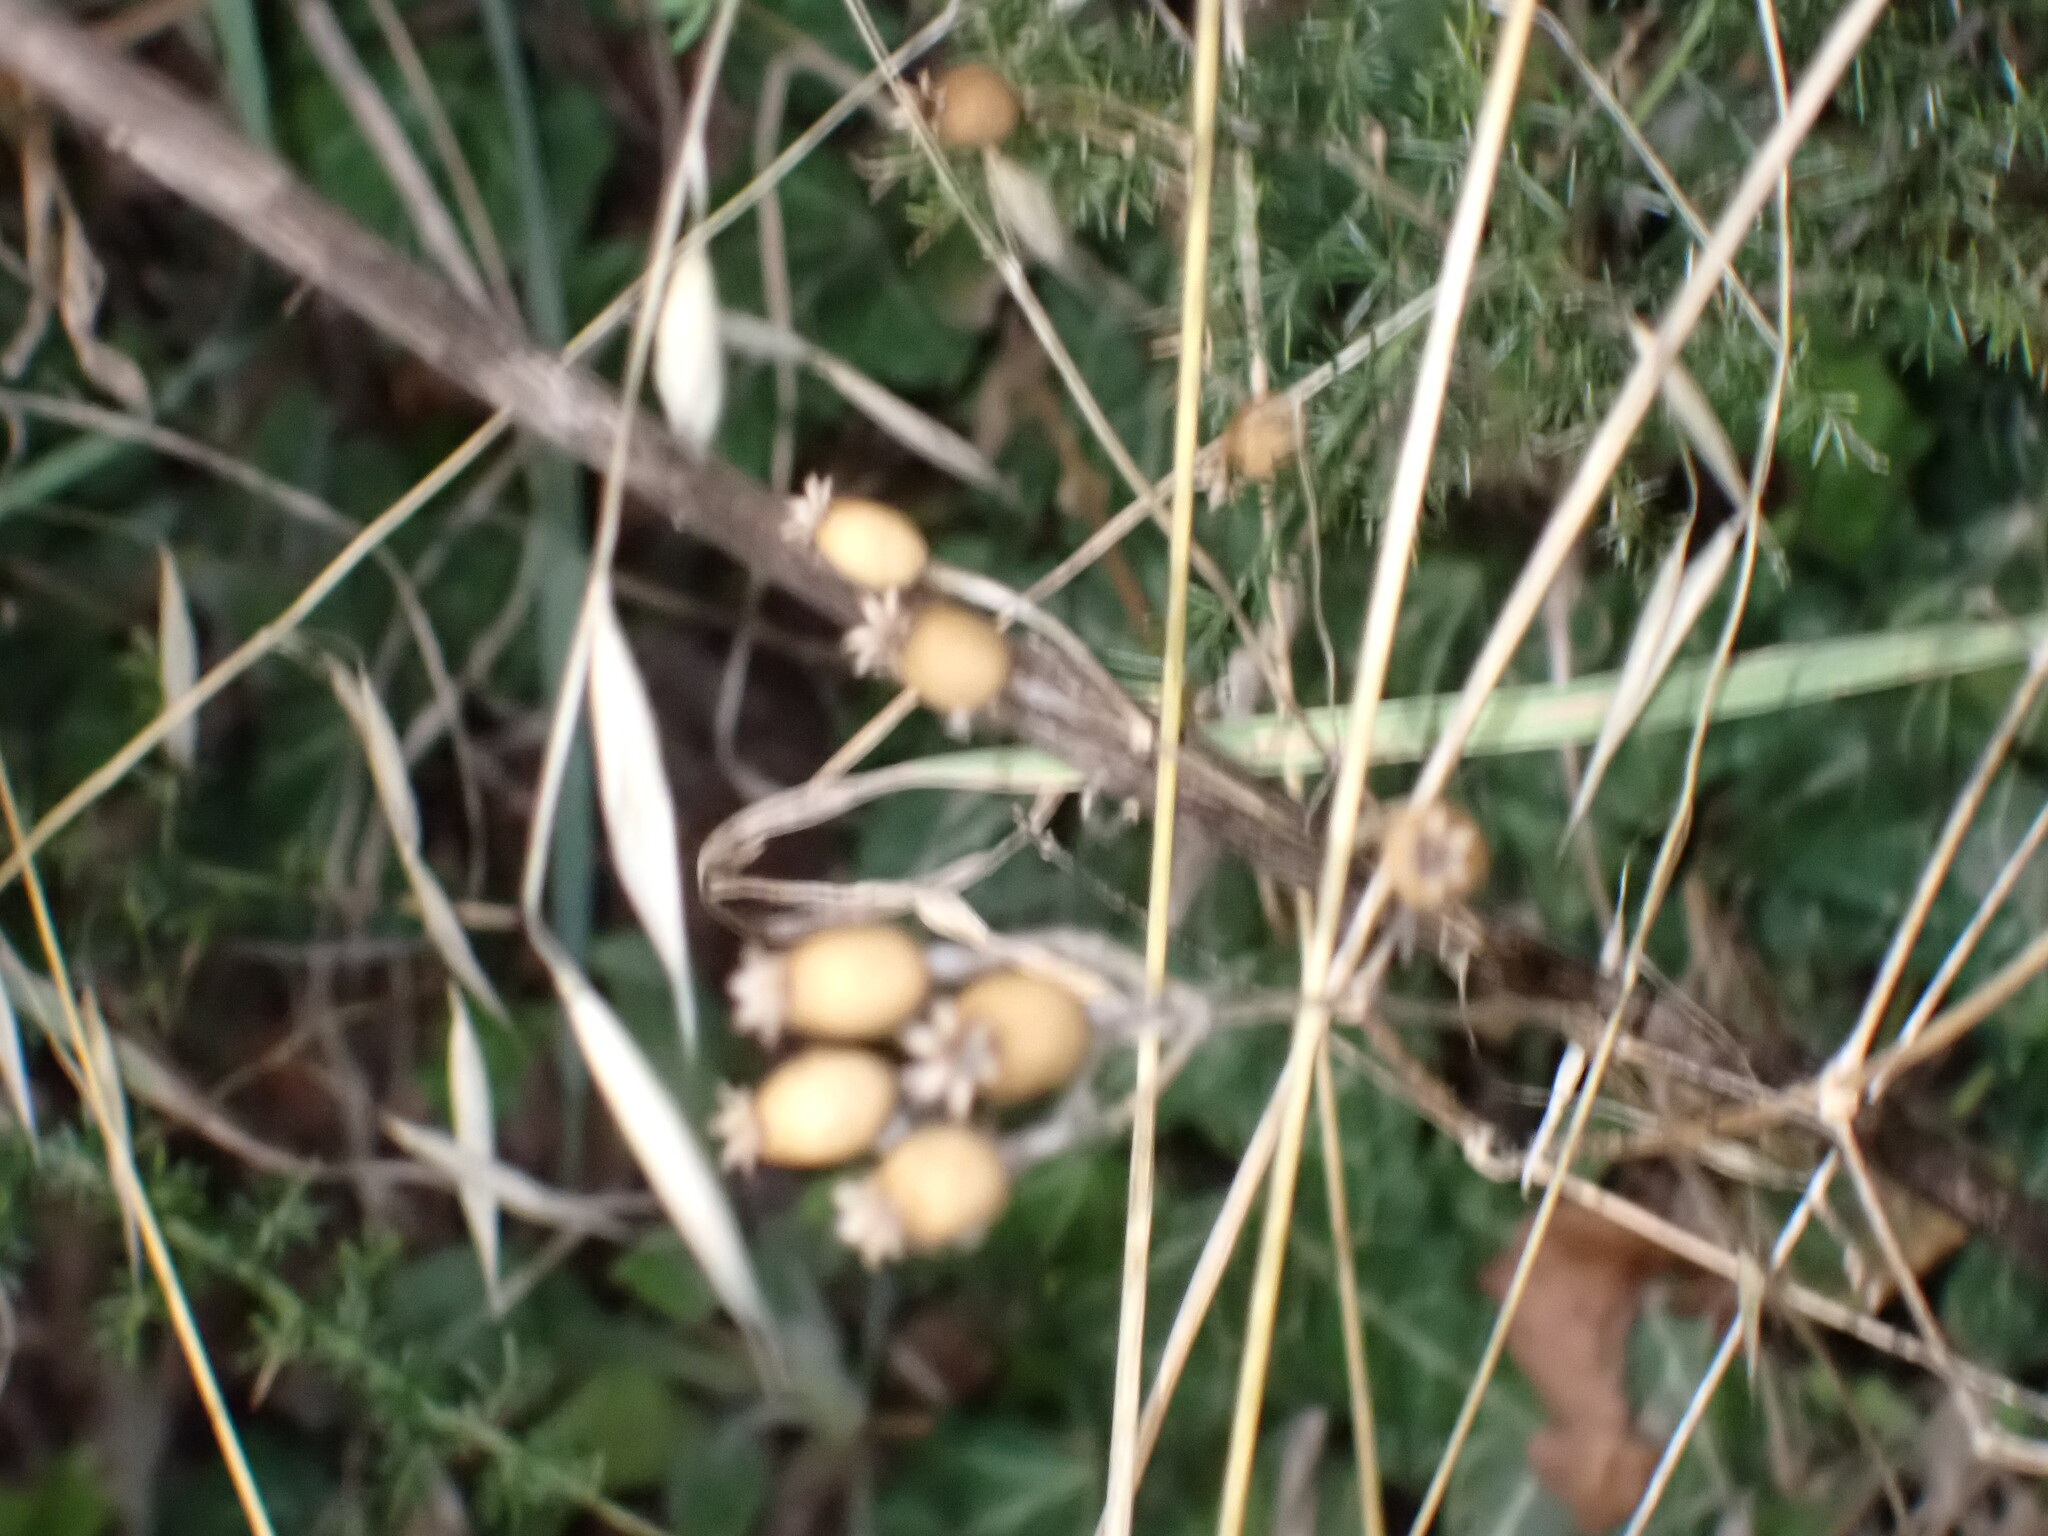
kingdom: Plantae
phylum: Tracheophyta
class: Magnoliopsida
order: Caryophyllales
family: Caryophyllaceae
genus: Silene
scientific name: Silene vulgaris
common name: Bladder campion
